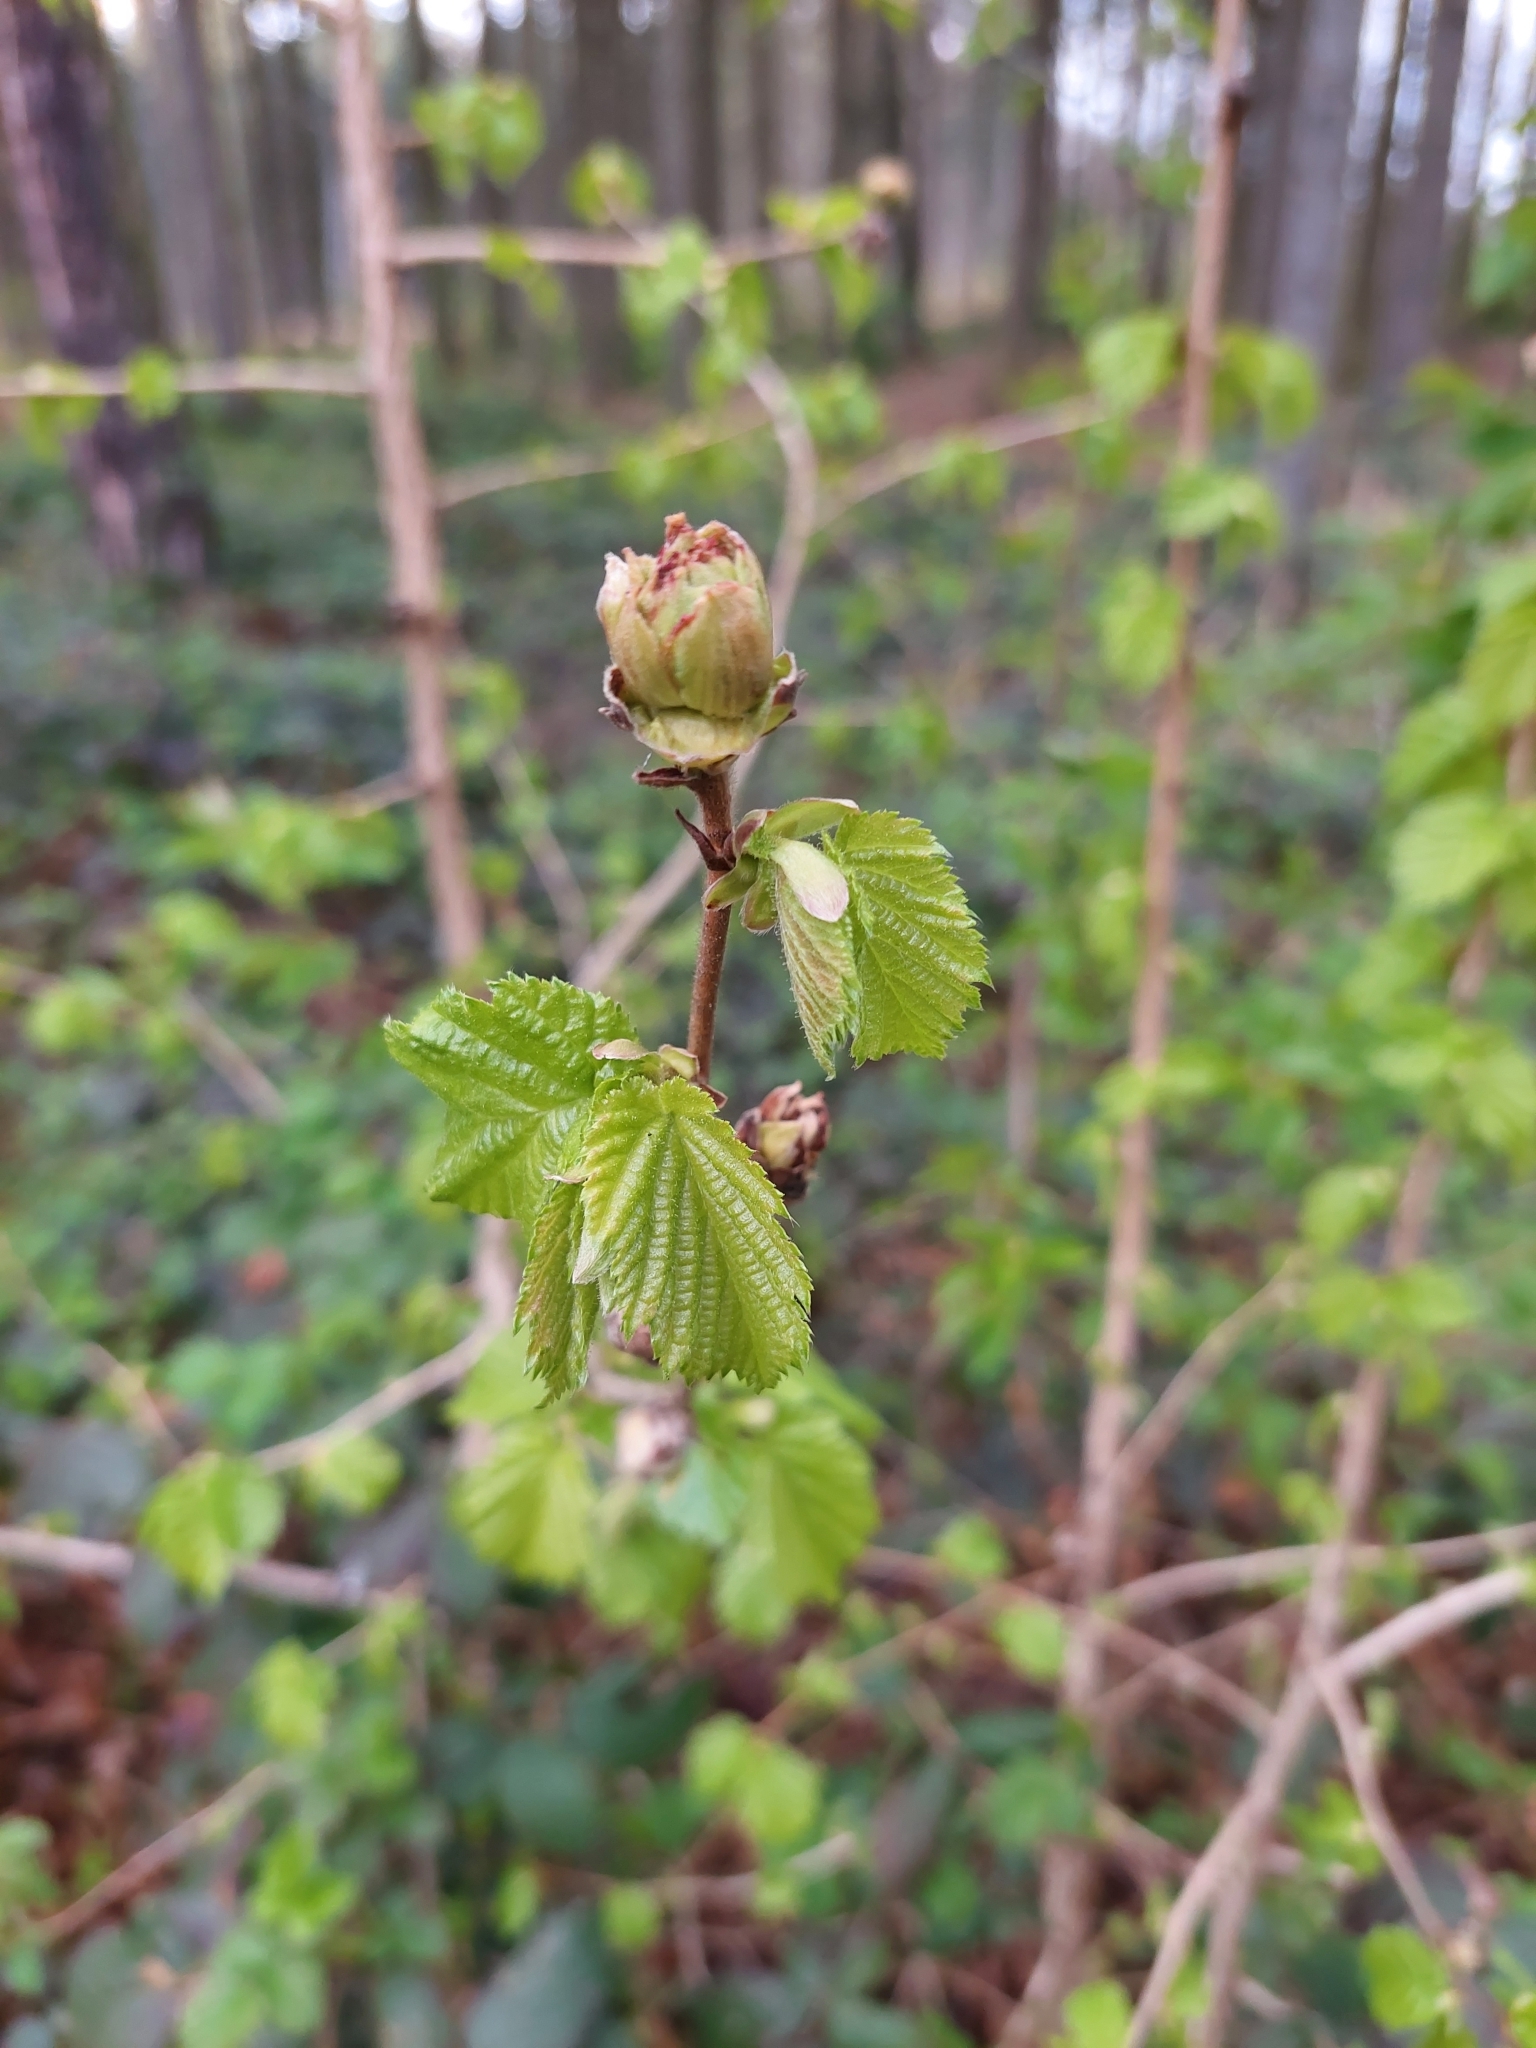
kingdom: Plantae
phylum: Tracheophyta
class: Magnoliopsida
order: Fagales
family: Betulaceae
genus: Corylus
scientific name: Corylus colurna
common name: Turkish hazel
